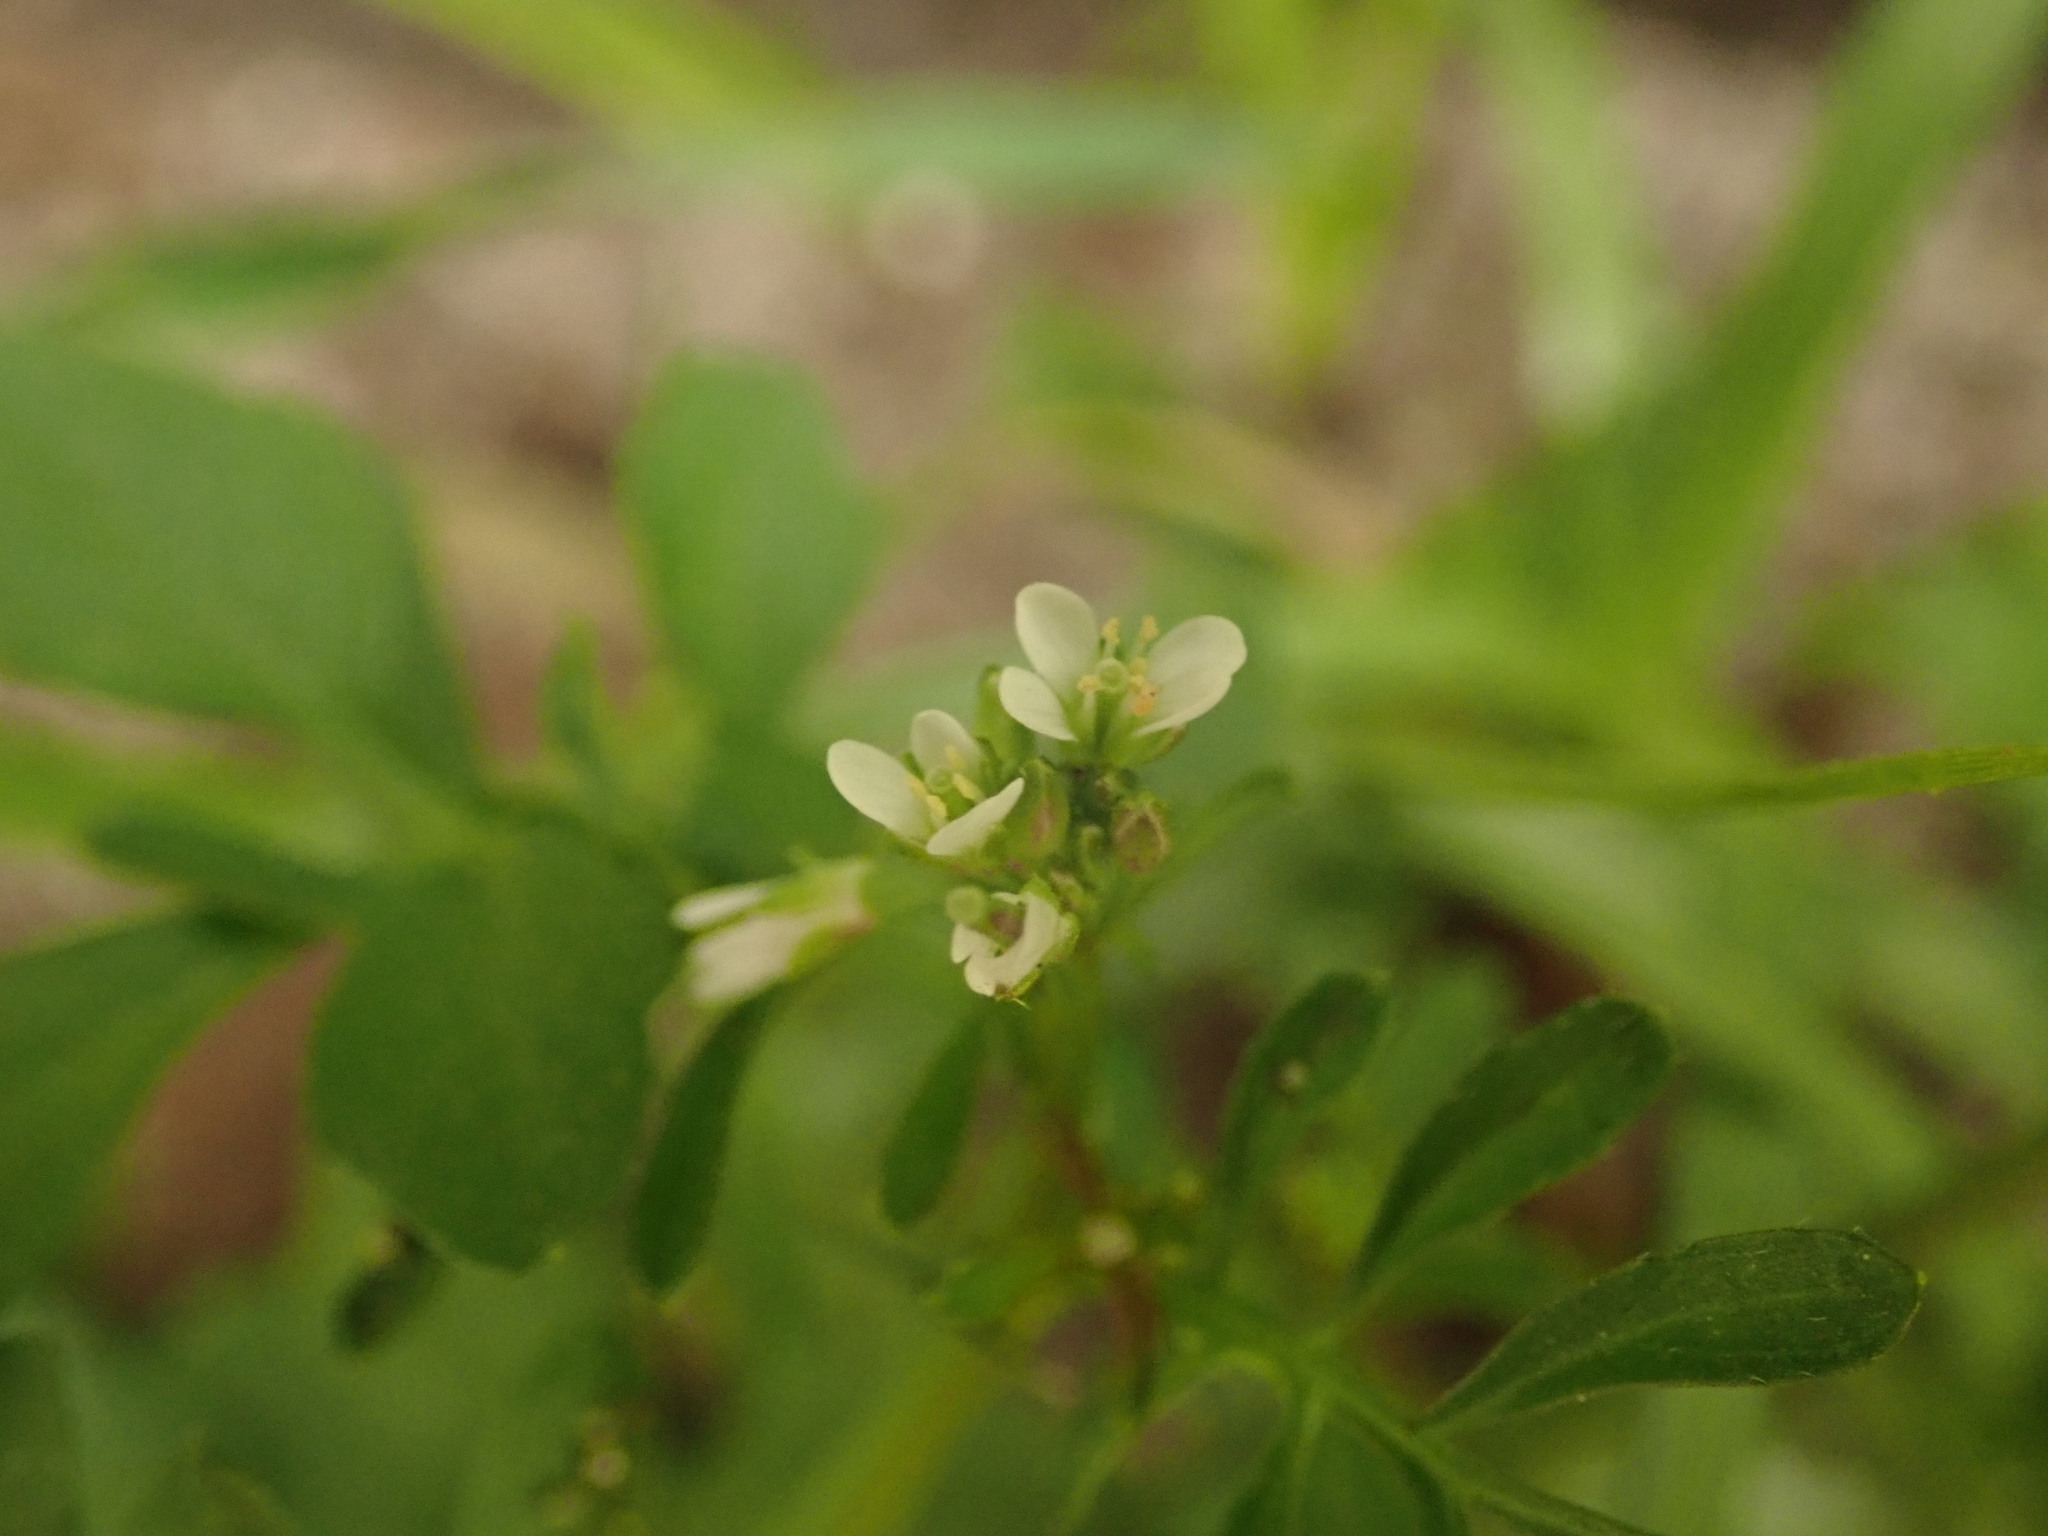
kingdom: Plantae
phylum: Tracheophyta
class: Magnoliopsida
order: Brassicales
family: Brassicaceae
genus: Cardamine
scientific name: Cardamine hirsuta
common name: Hairy bittercress
